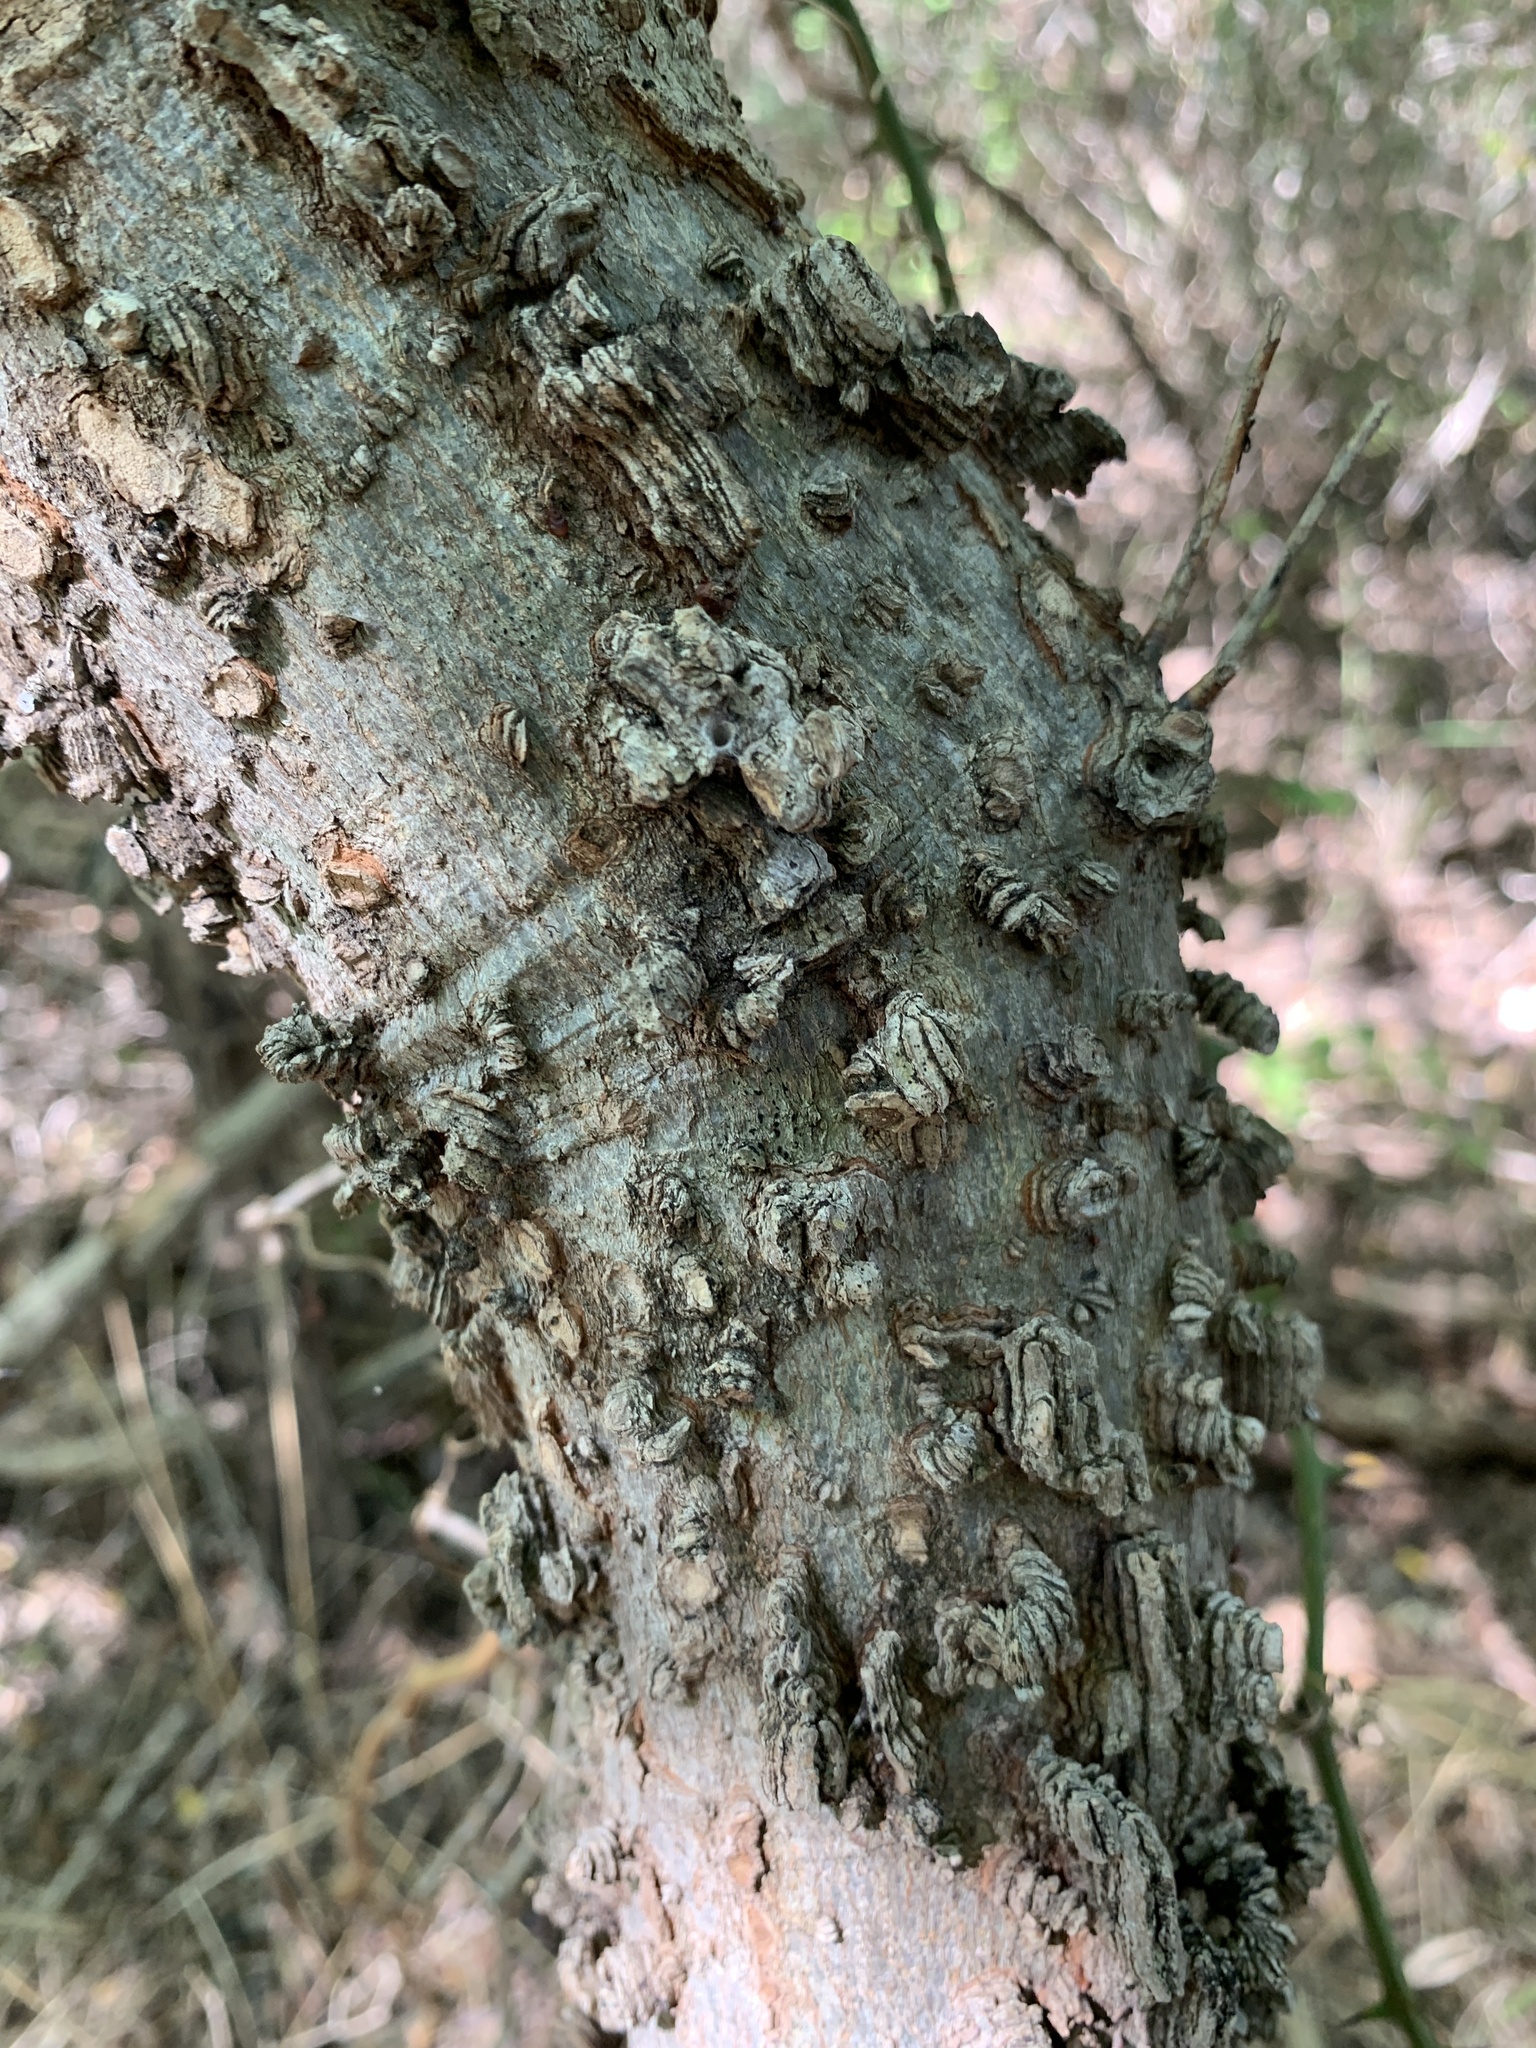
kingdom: Plantae
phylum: Tracheophyta
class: Magnoliopsida
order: Rosales
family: Cannabaceae
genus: Celtis
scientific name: Celtis laevigata
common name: Sugarberry
